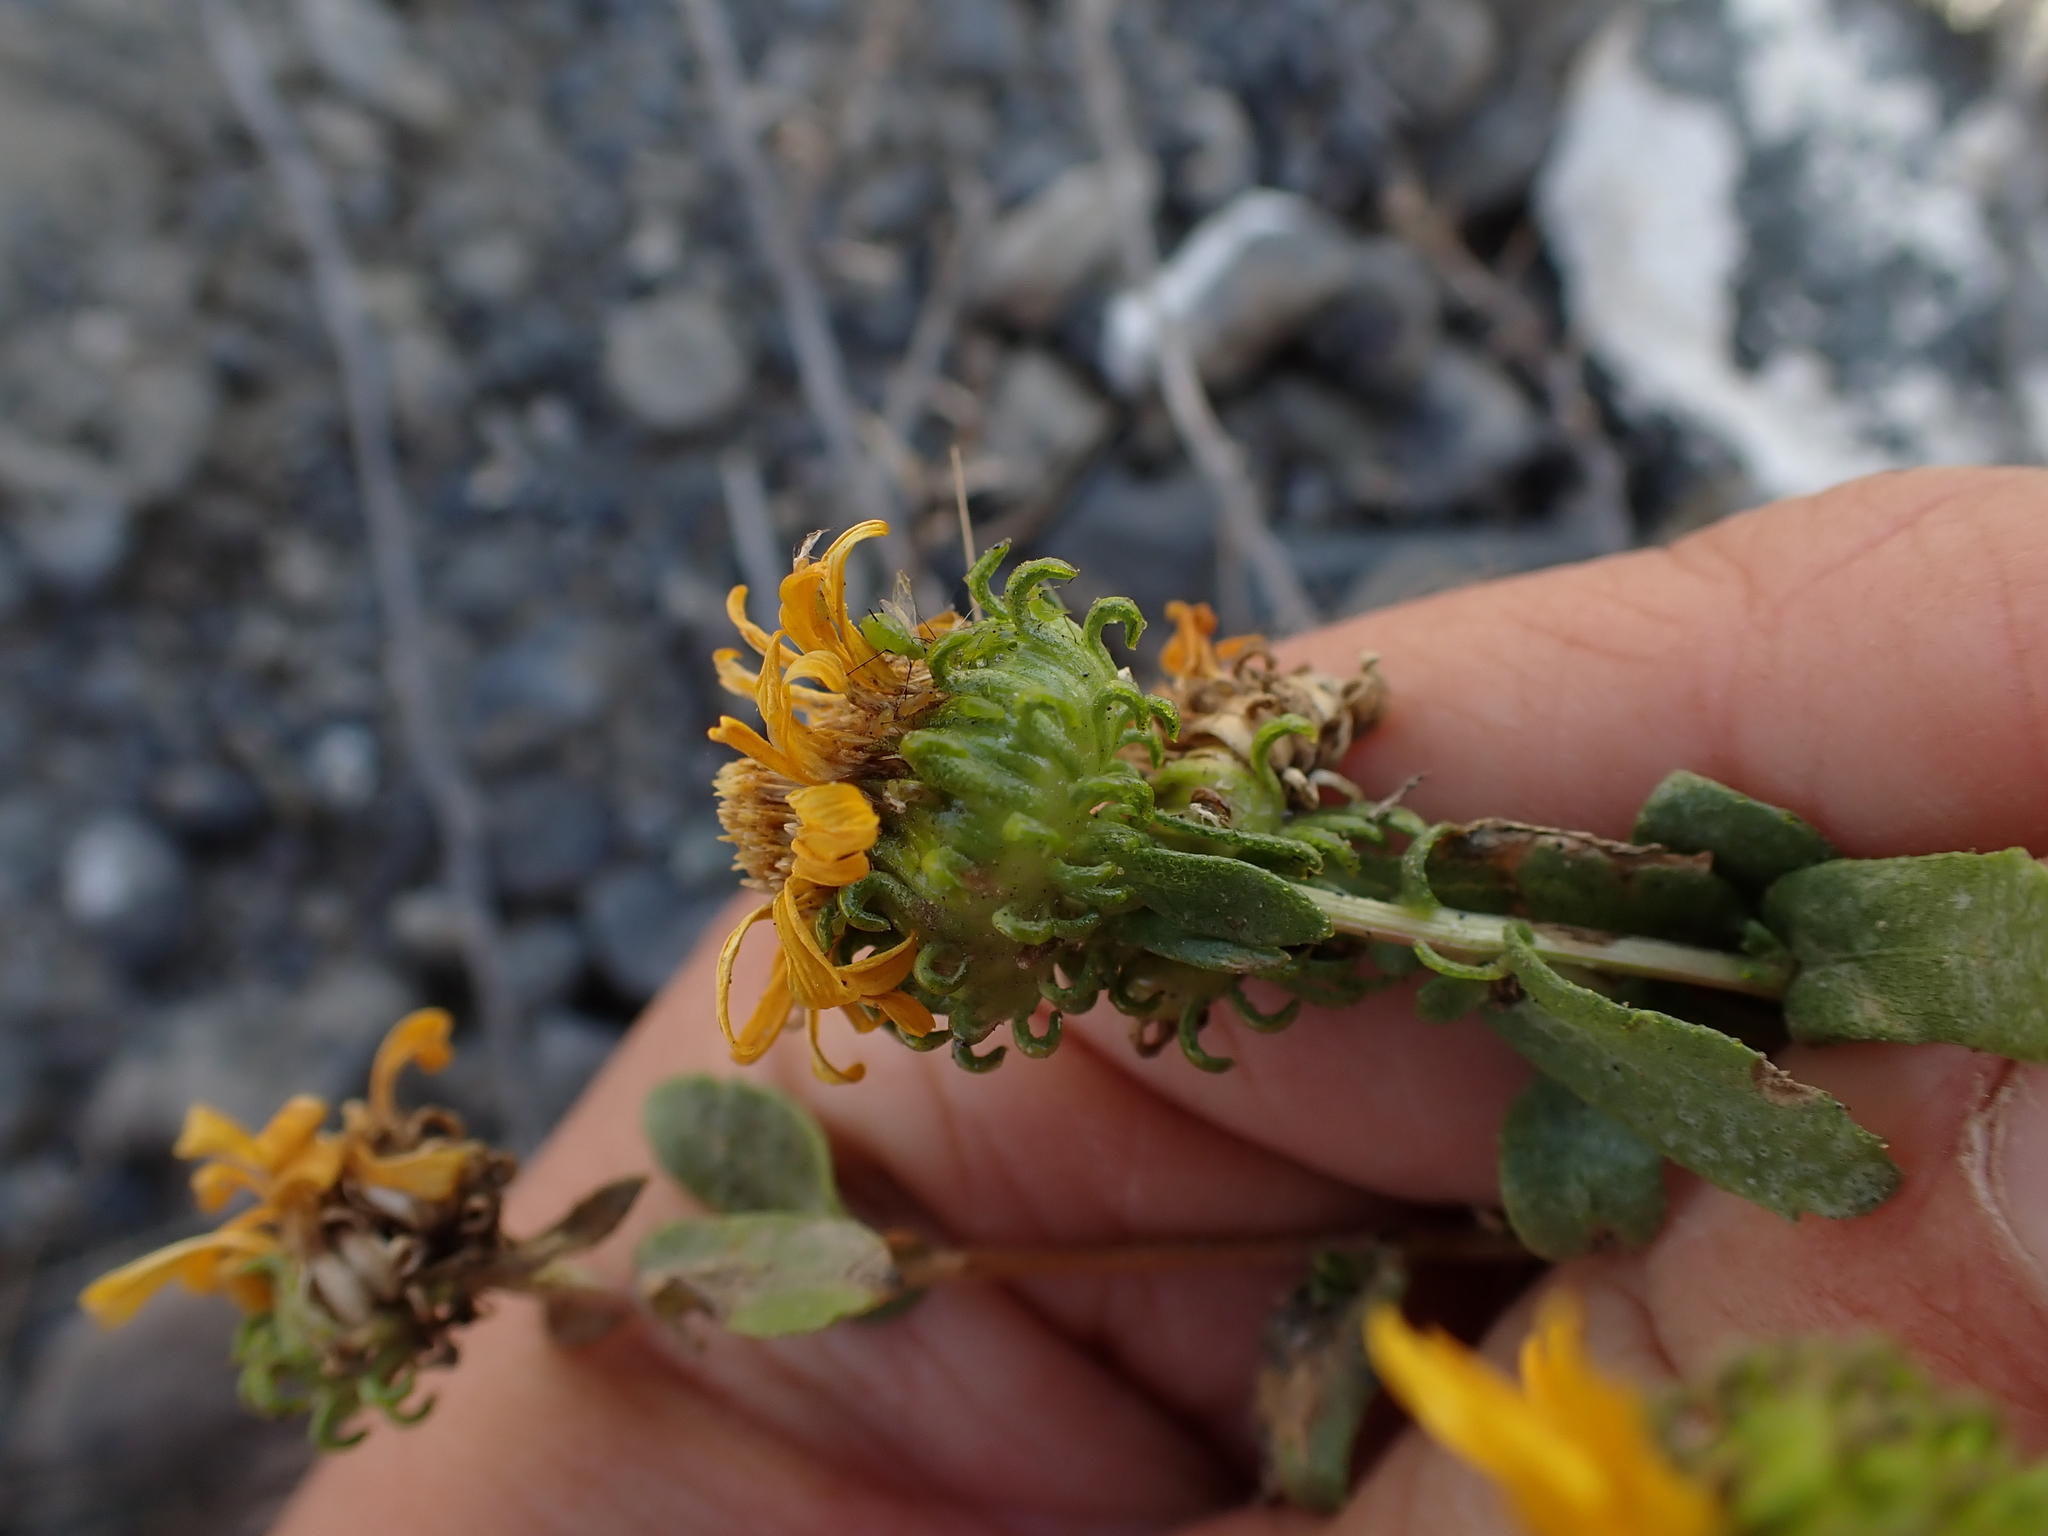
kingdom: Plantae
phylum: Tracheophyta
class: Magnoliopsida
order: Asterales
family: Asteraceae
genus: Grindelia
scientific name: Grindelia squarrosa
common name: Curly-cup gumweed
